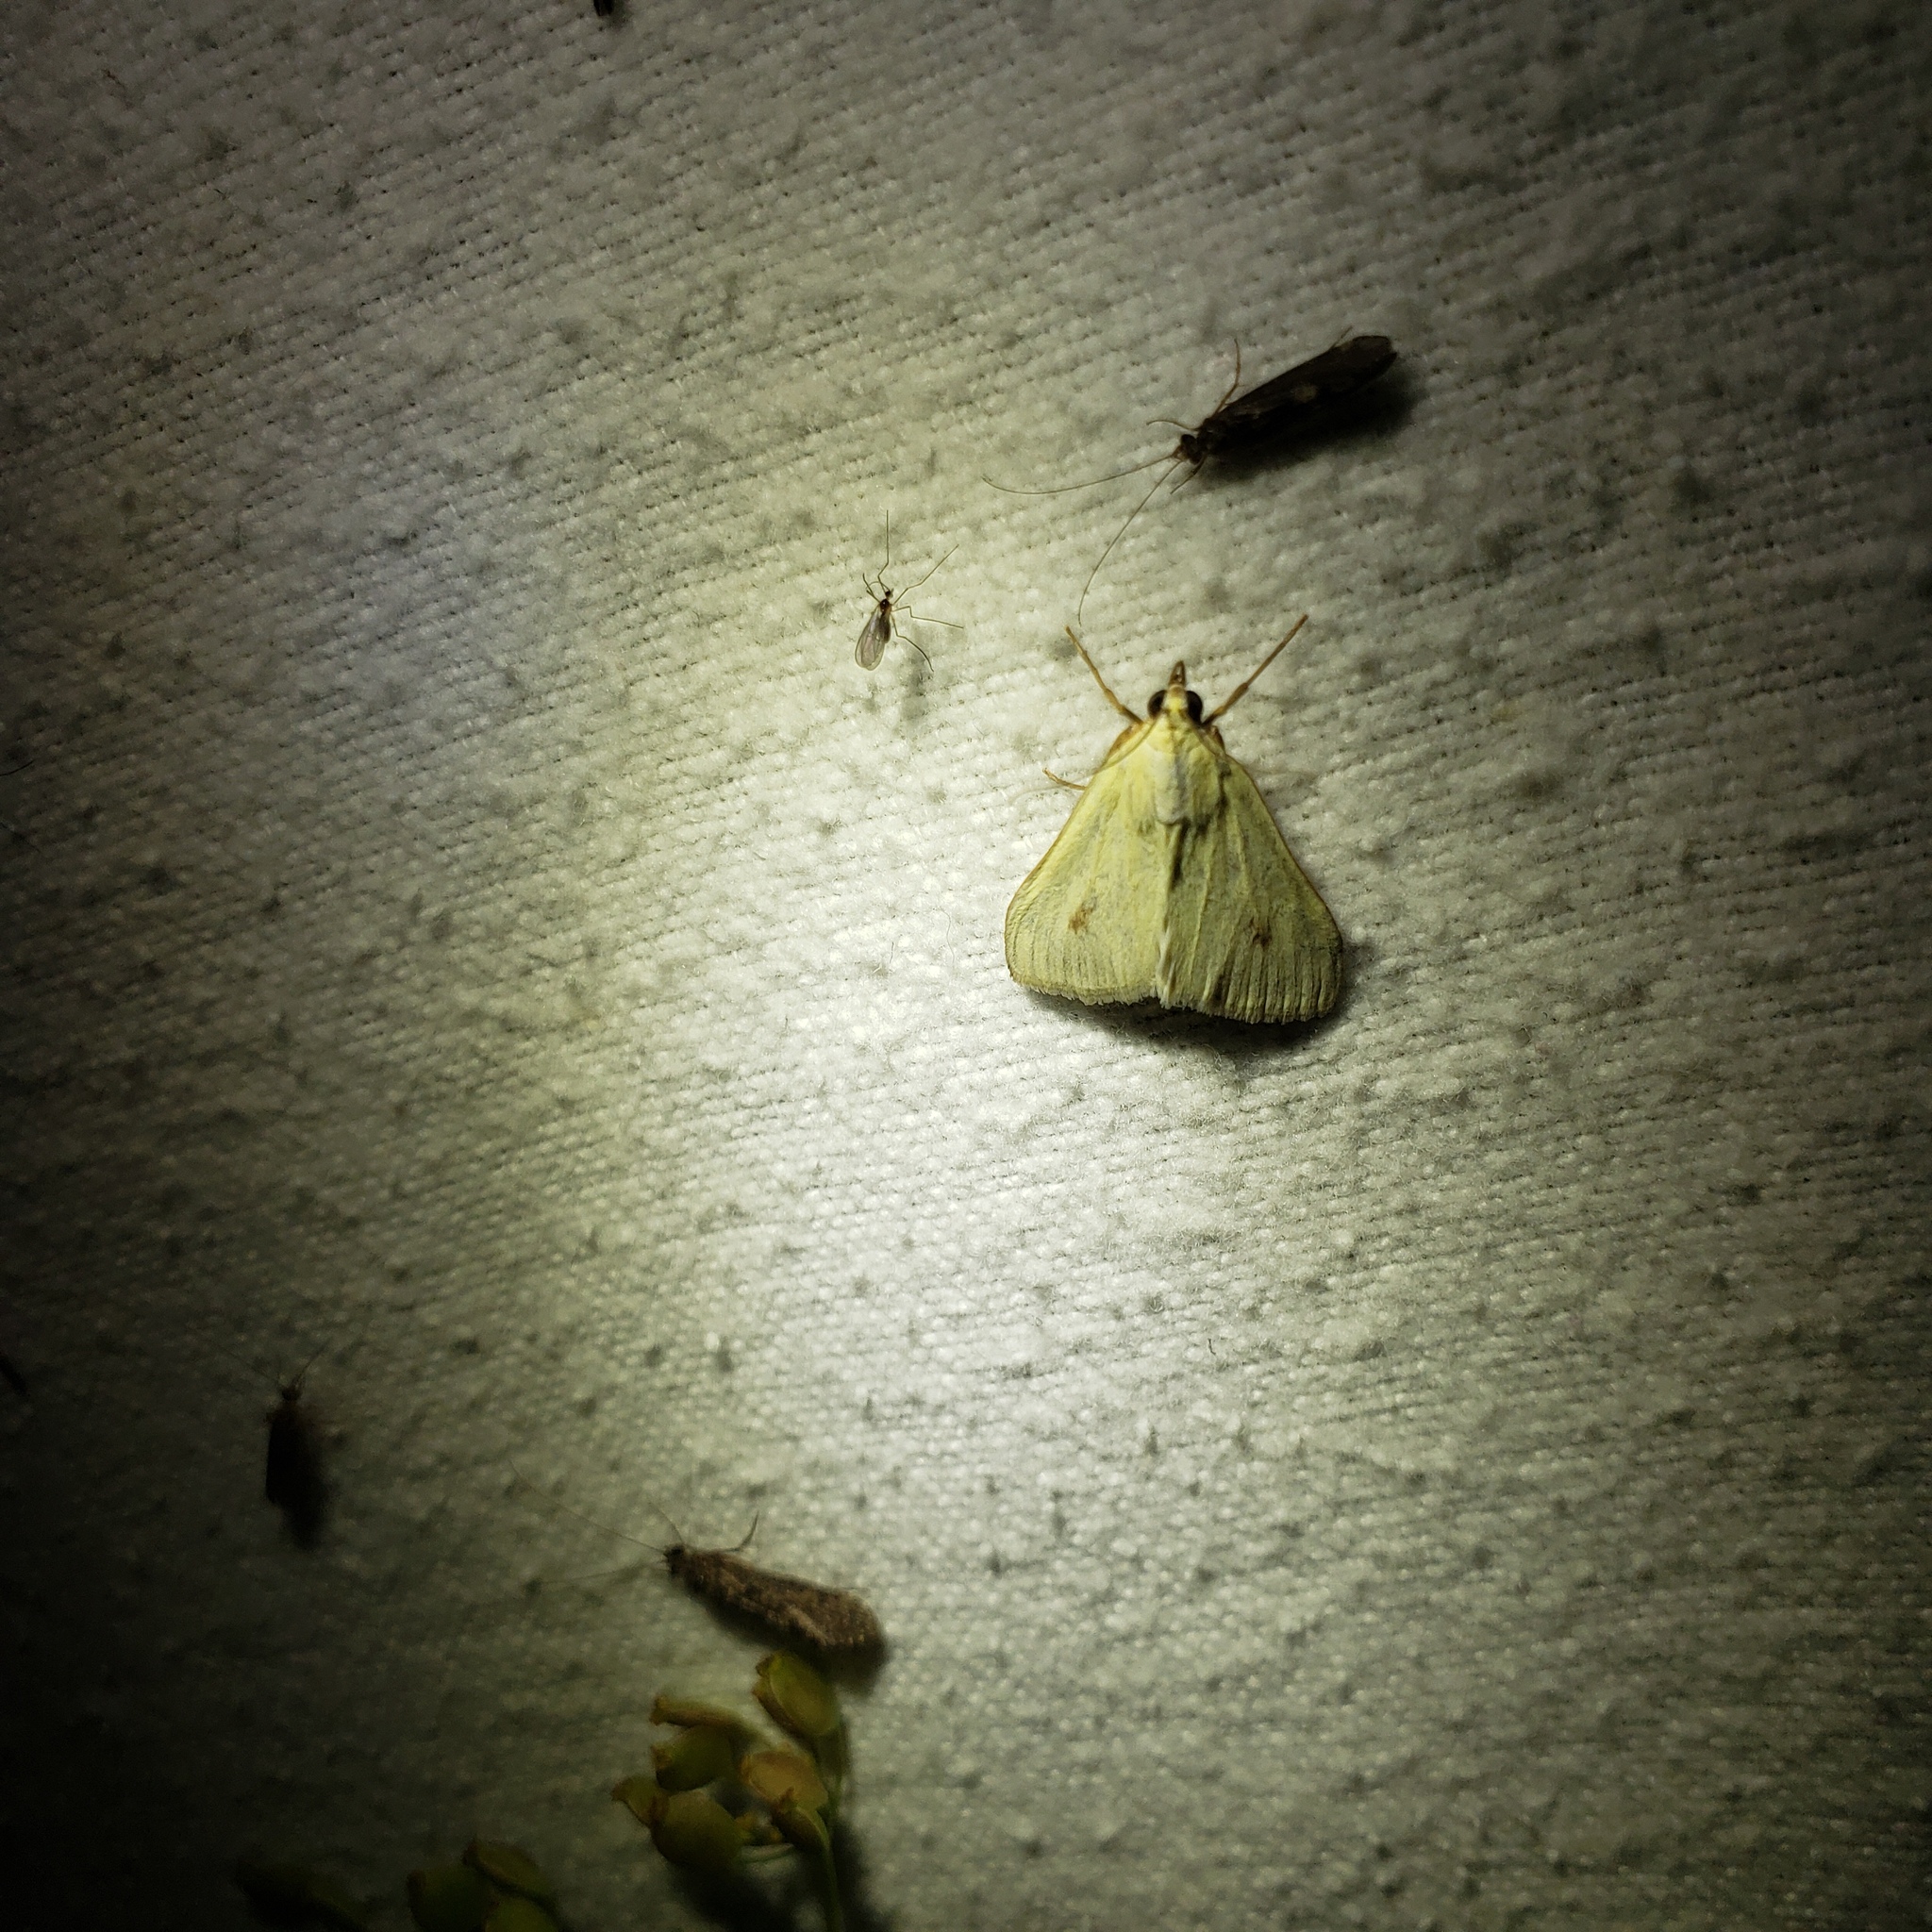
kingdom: Animalia
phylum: Arthropoda
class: Insecta
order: Lepidoptera
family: Crambidae
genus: Sitochroa
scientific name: Sitochroa palealis
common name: Greenish-yellow sitochroa moth
